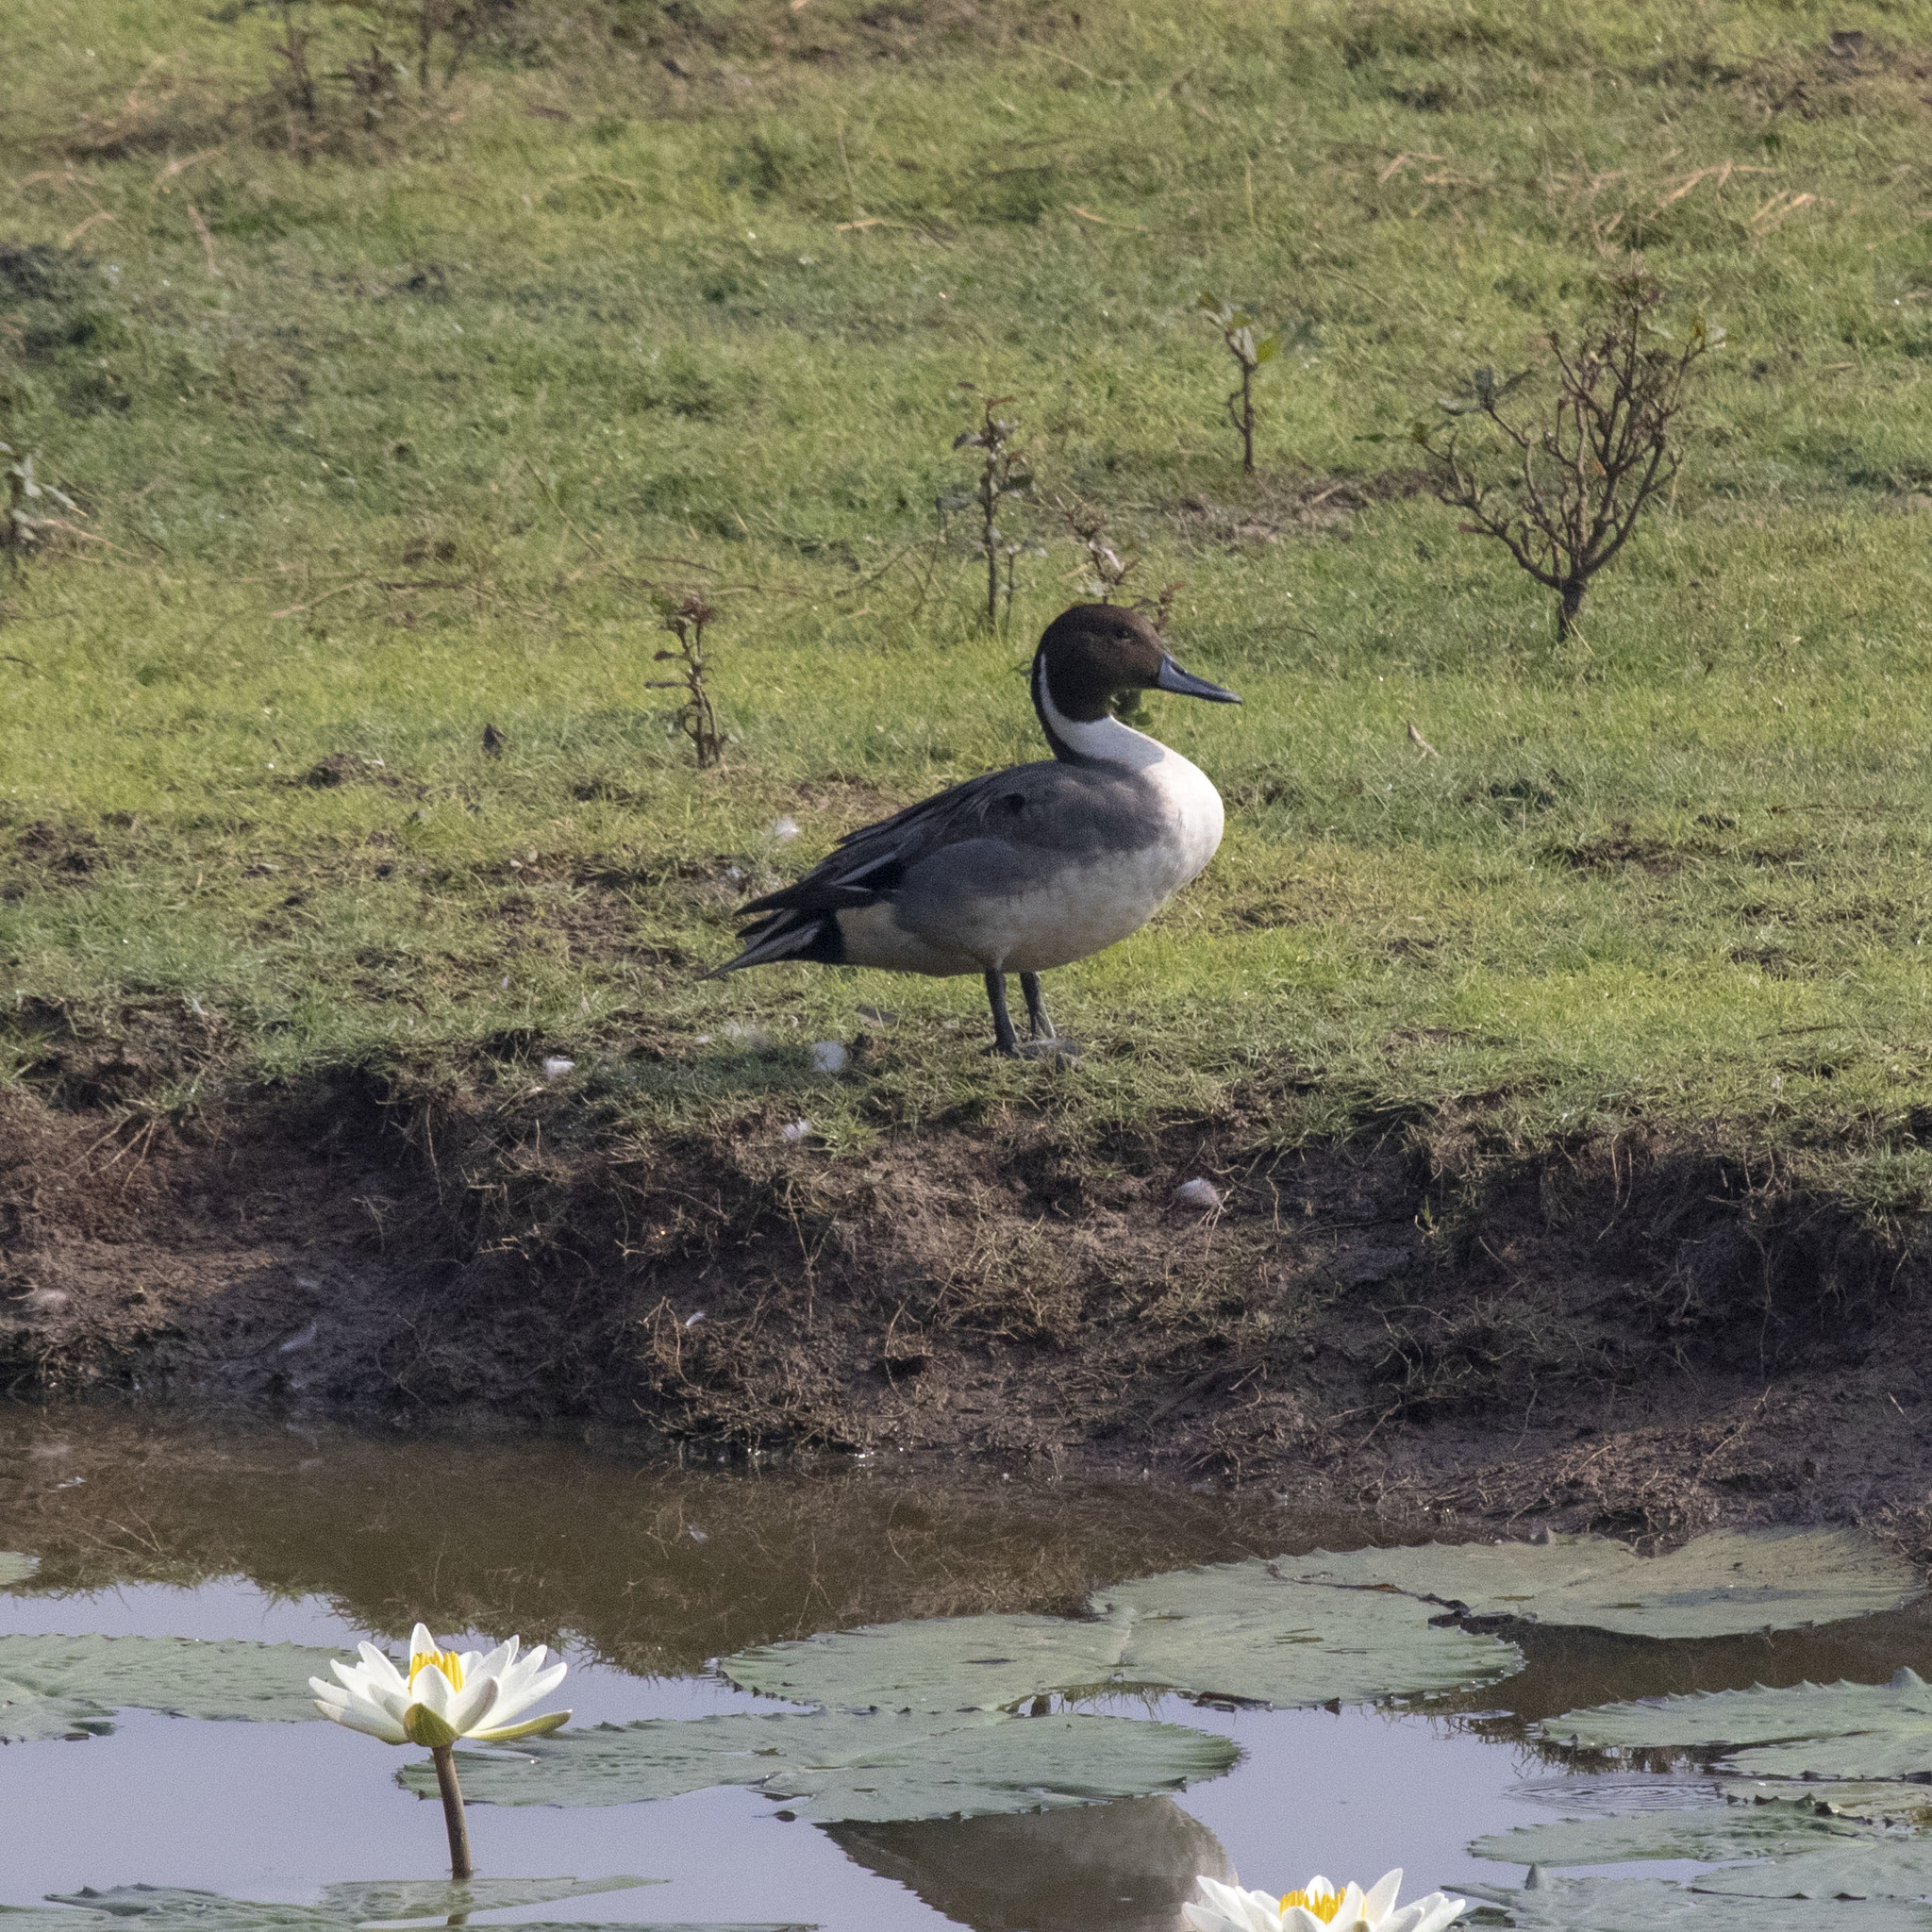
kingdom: Animalia
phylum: Chordata
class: Aves
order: Anseriformes
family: Anatidae
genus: Anas
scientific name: Anas acuta
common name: Northern pintail
